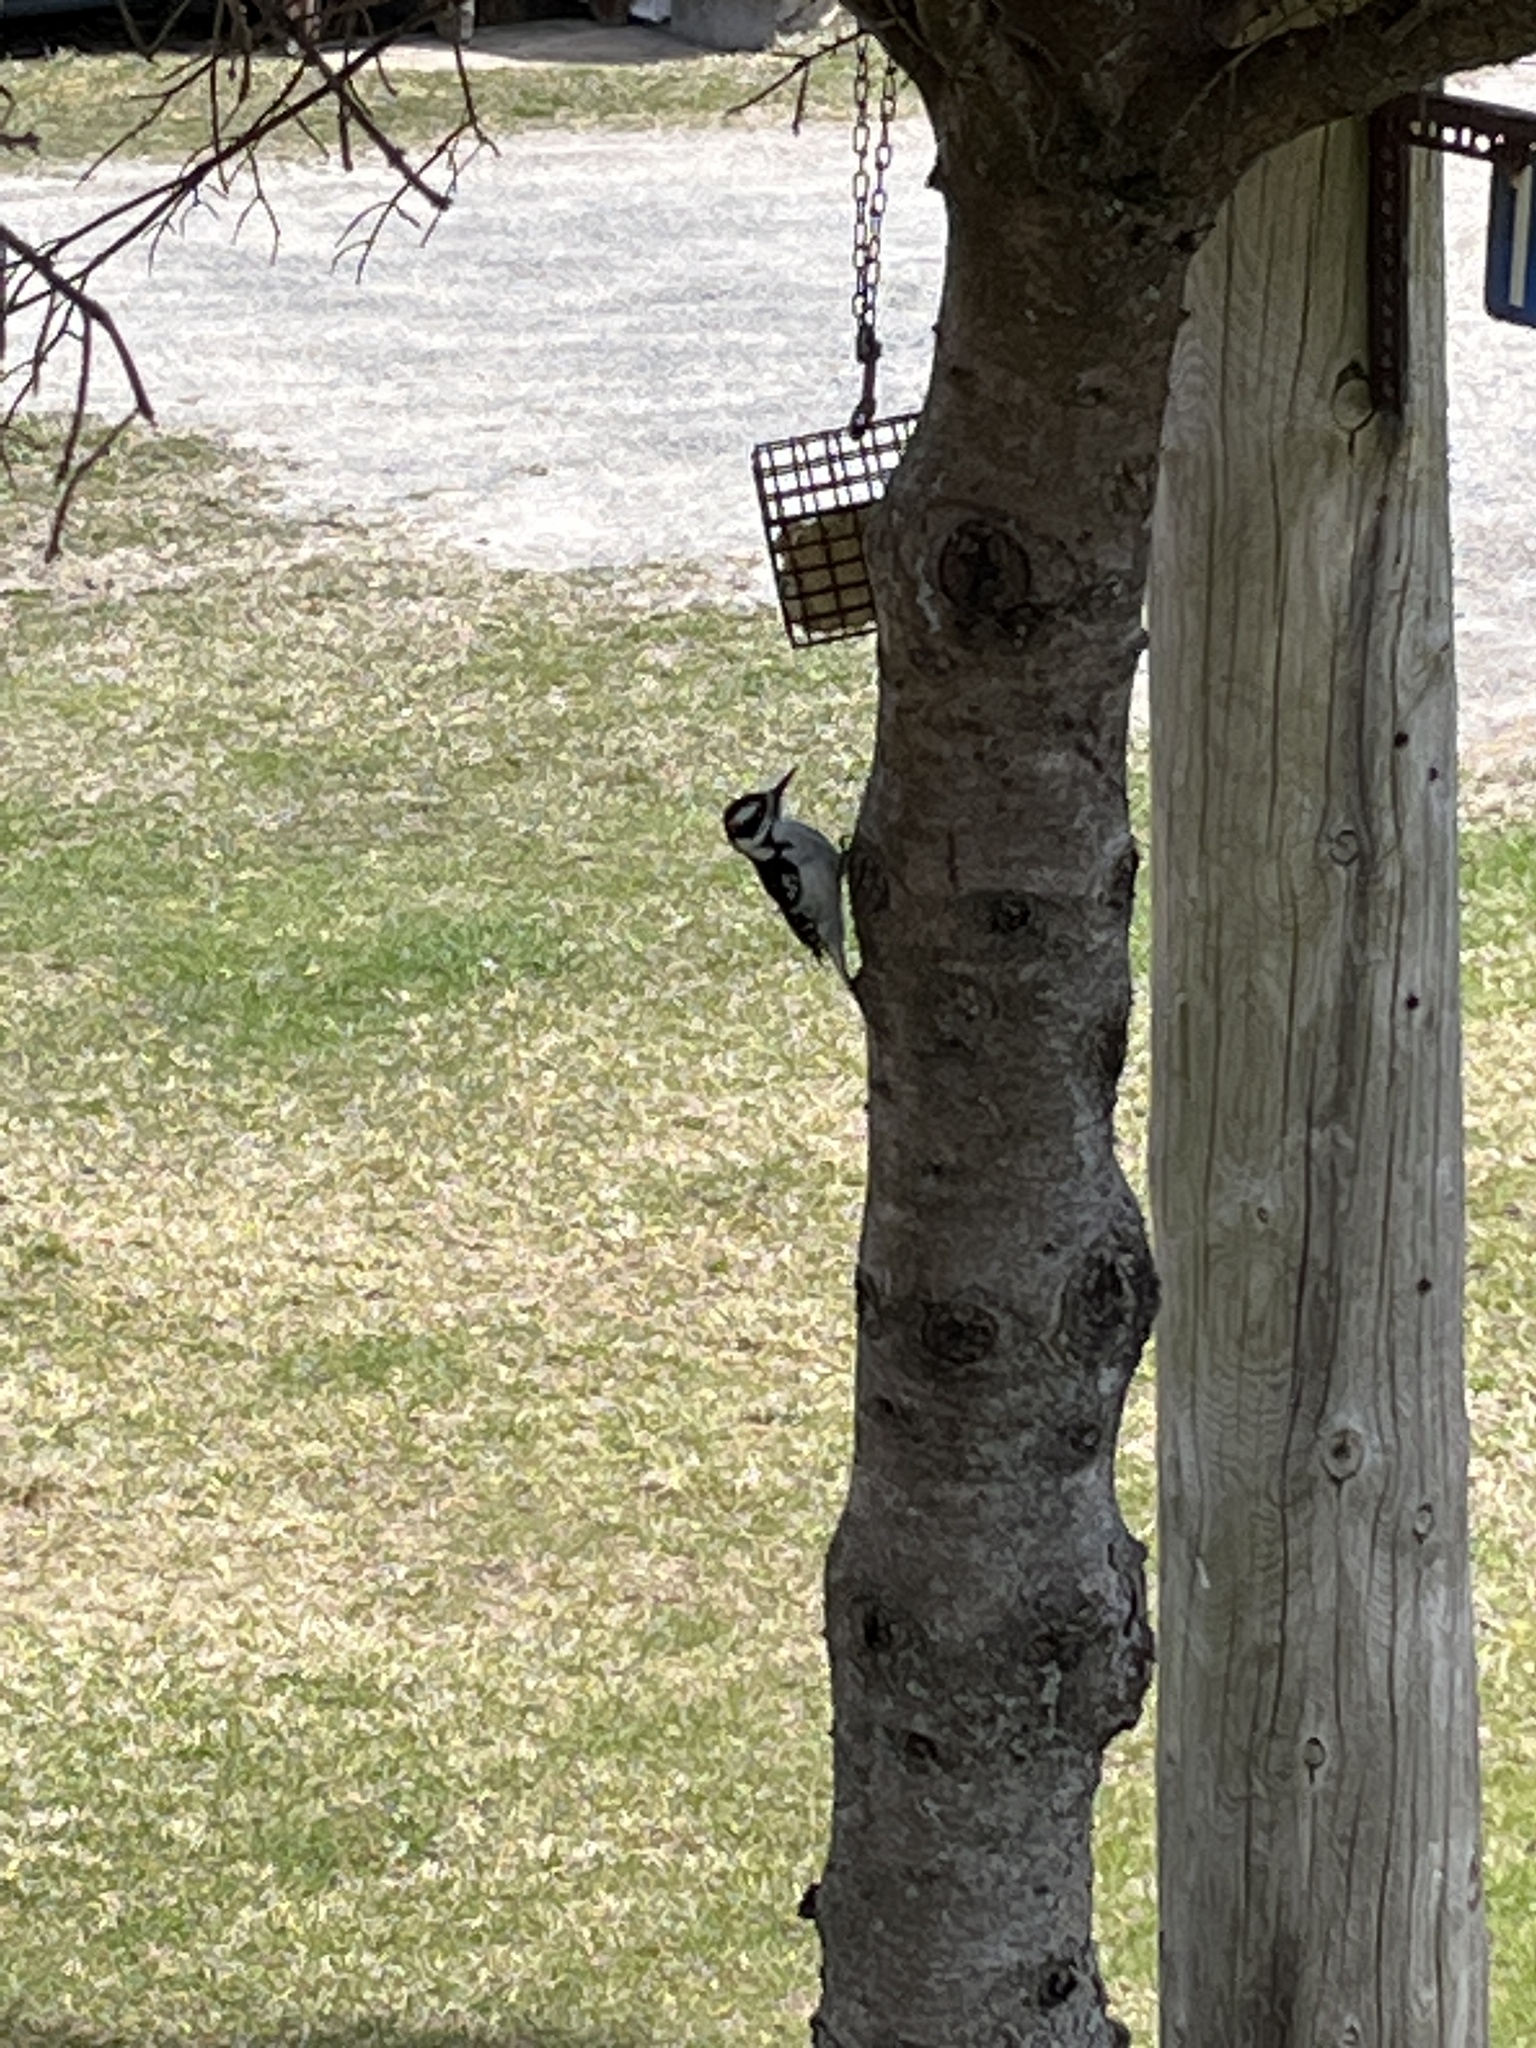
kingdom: Animalia
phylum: Chordata
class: Aves
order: Piciformes
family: Picidae
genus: Leuconotopicus
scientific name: Leuconotopicus villosus
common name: Hairy woodpecker
